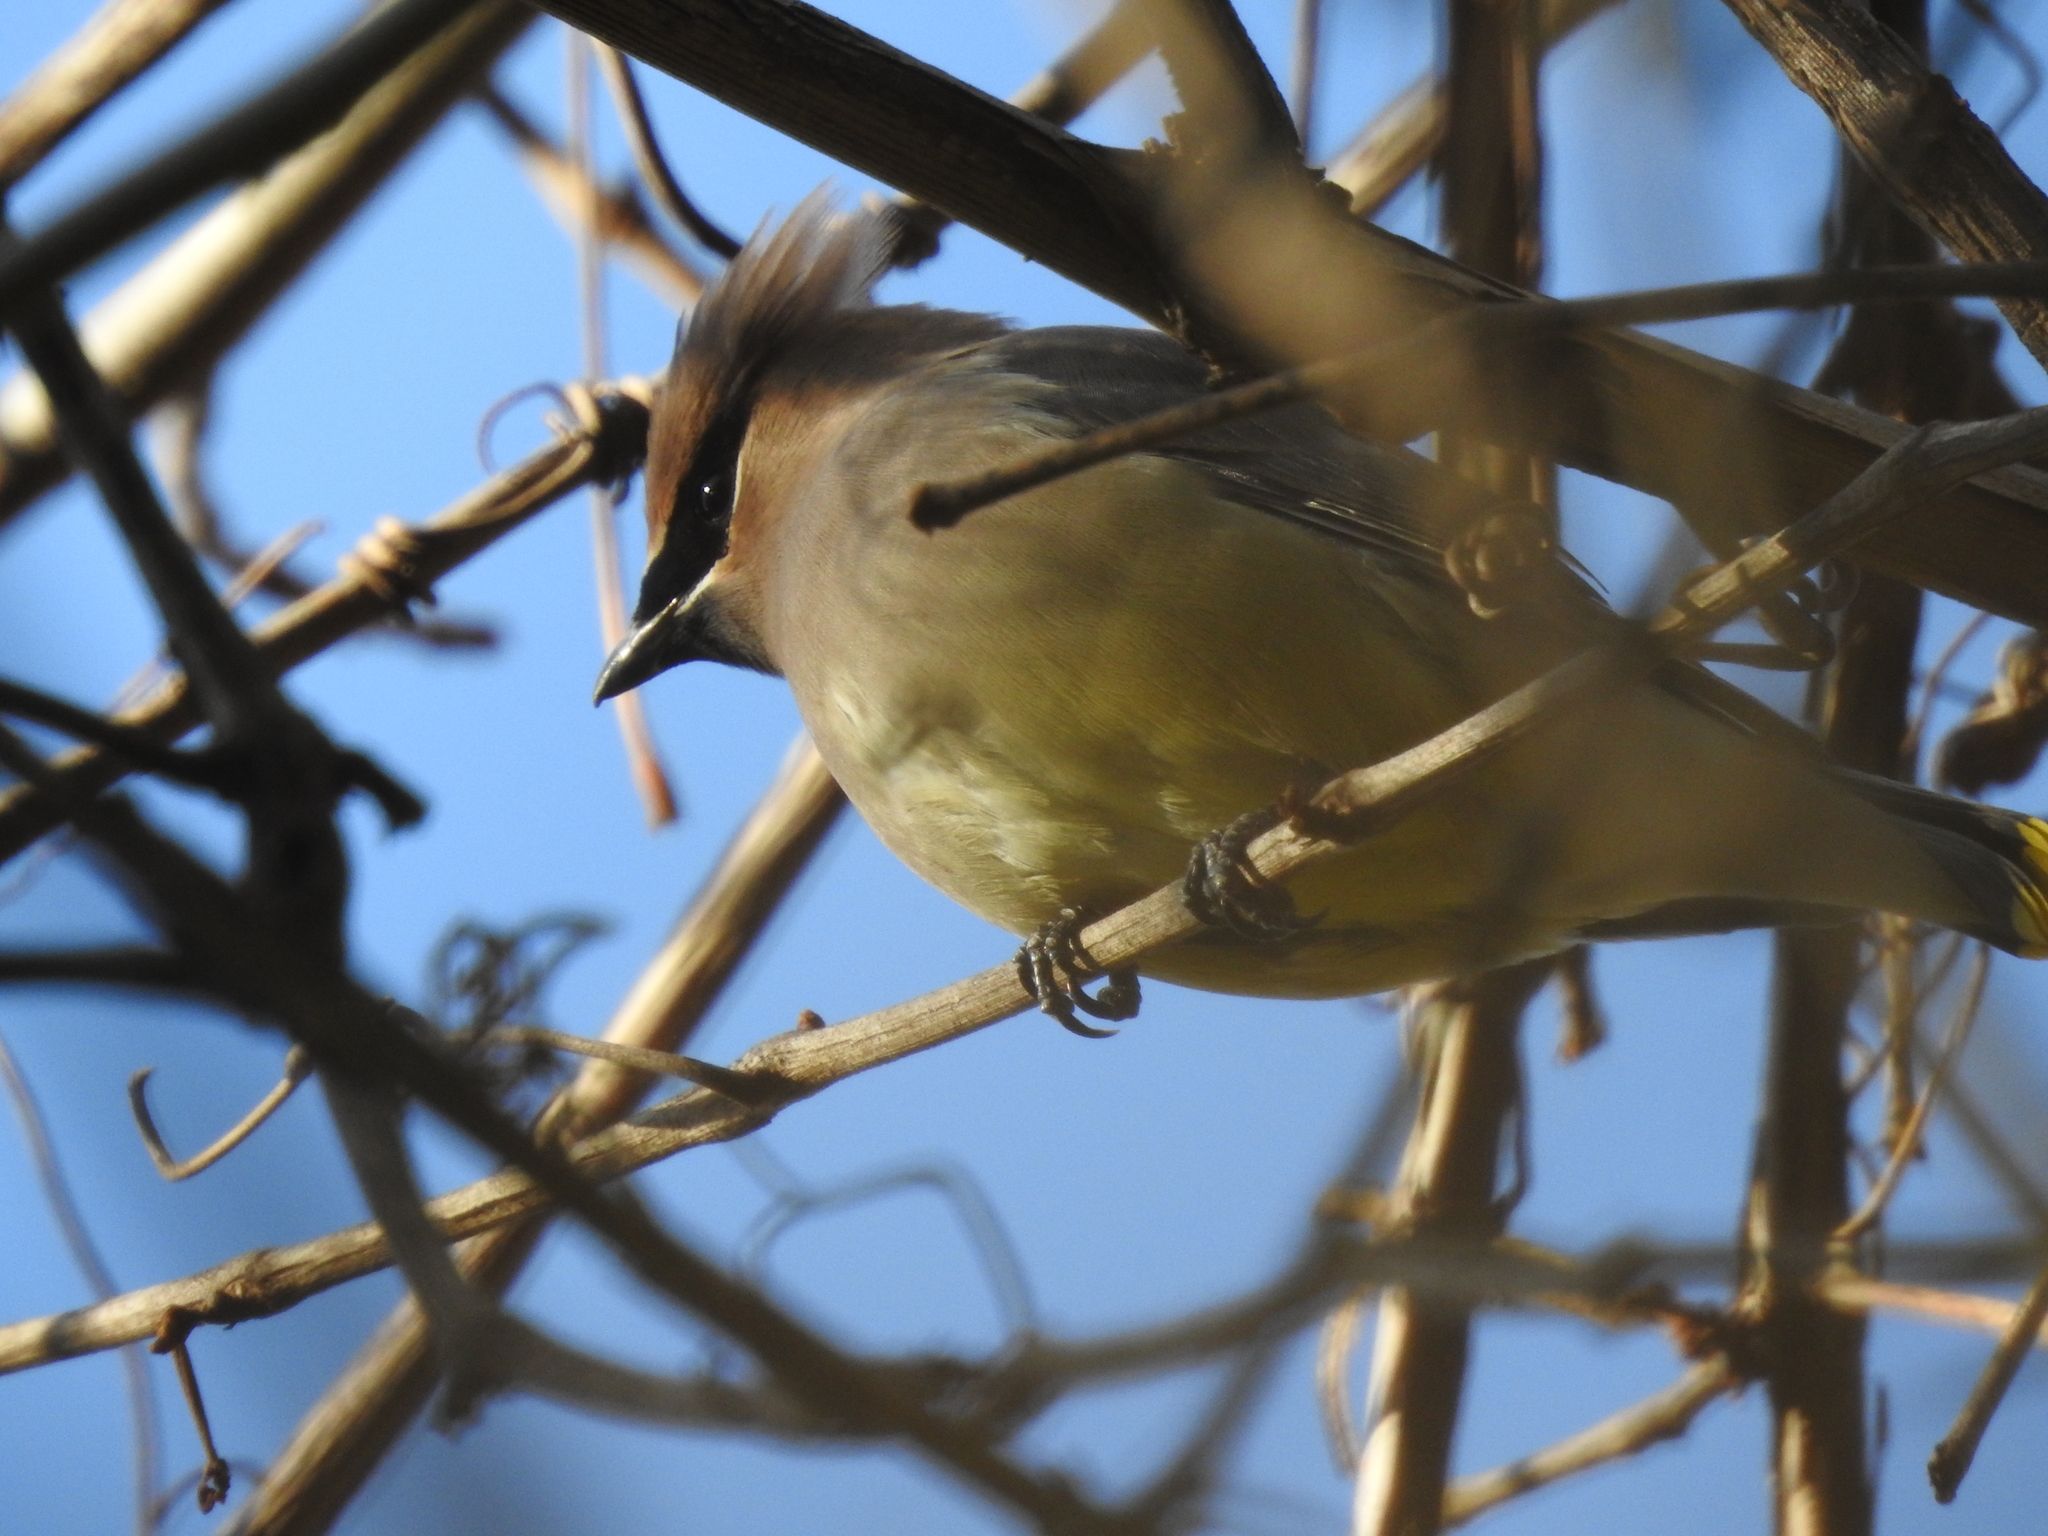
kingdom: Animalia
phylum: Chordata
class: Aves
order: Passeriformes
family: Bombycillidae
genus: Bombycilla
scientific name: Bombycilla cedrorum
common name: Cedar waxwing
